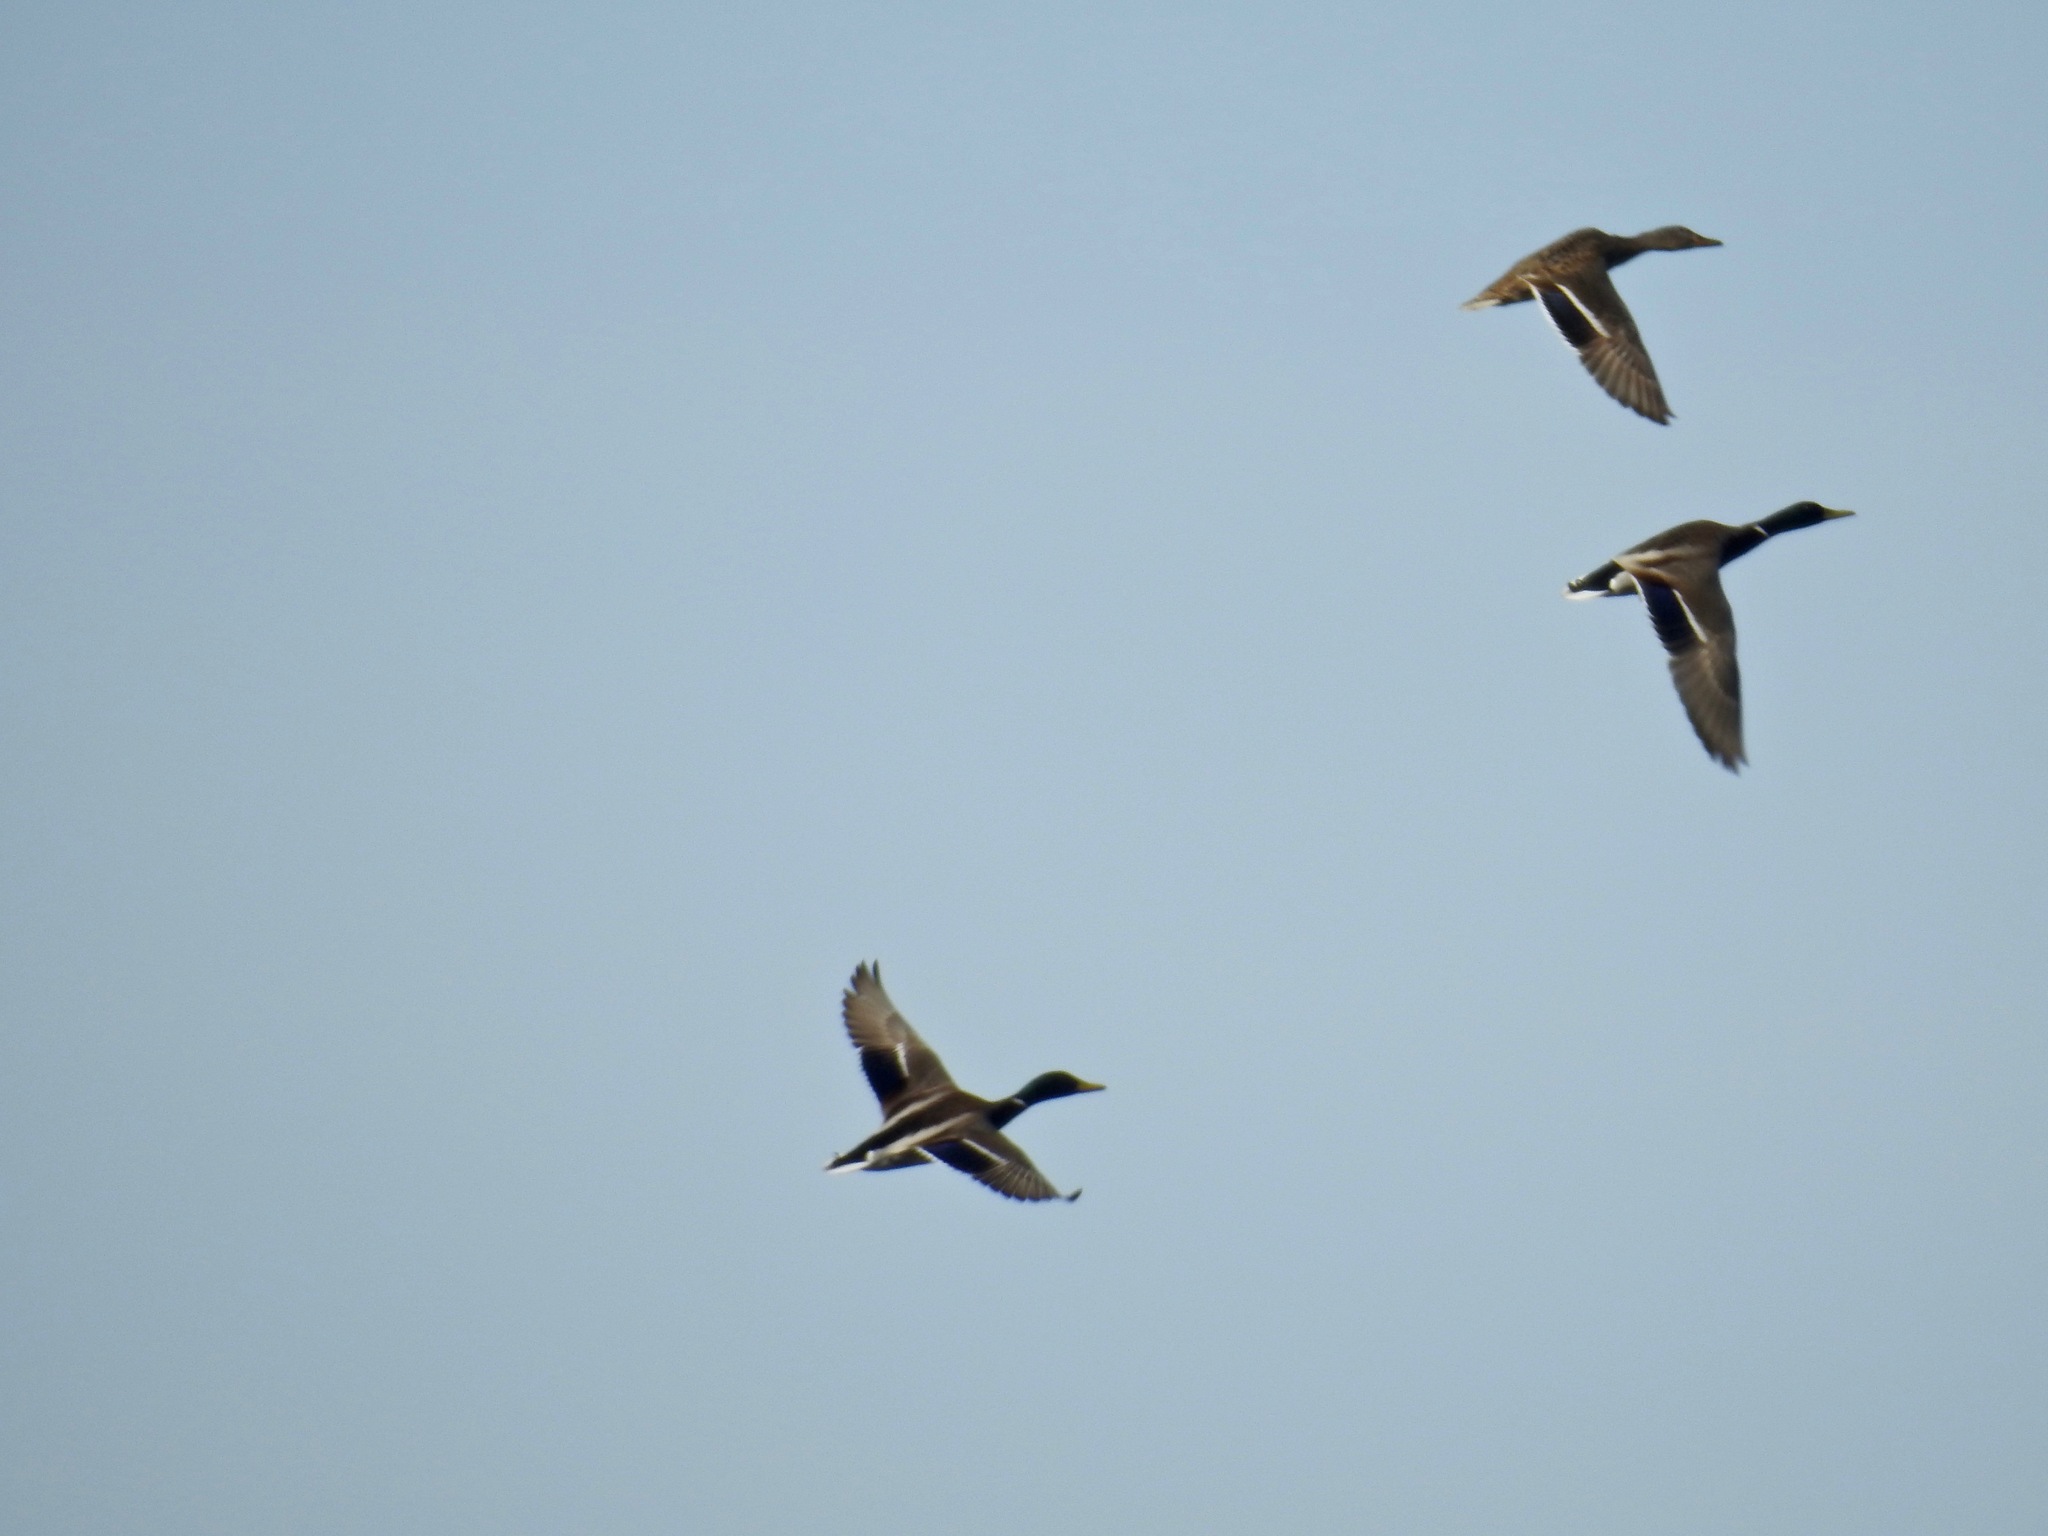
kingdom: Animalia
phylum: Chordata
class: Aves
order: Anseriformes
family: Anatidae
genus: Anas
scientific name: Anas platyrhynchos
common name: Mallard
